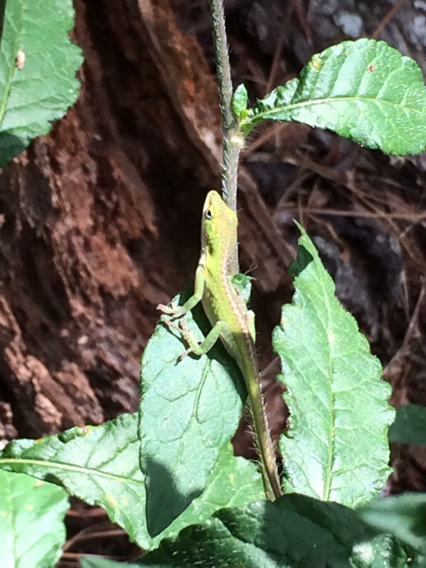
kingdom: Animalia
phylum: Chordata
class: Squamata
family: Dactyloidae
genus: Anolis
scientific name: Anolis carolinensis
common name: Green anole
